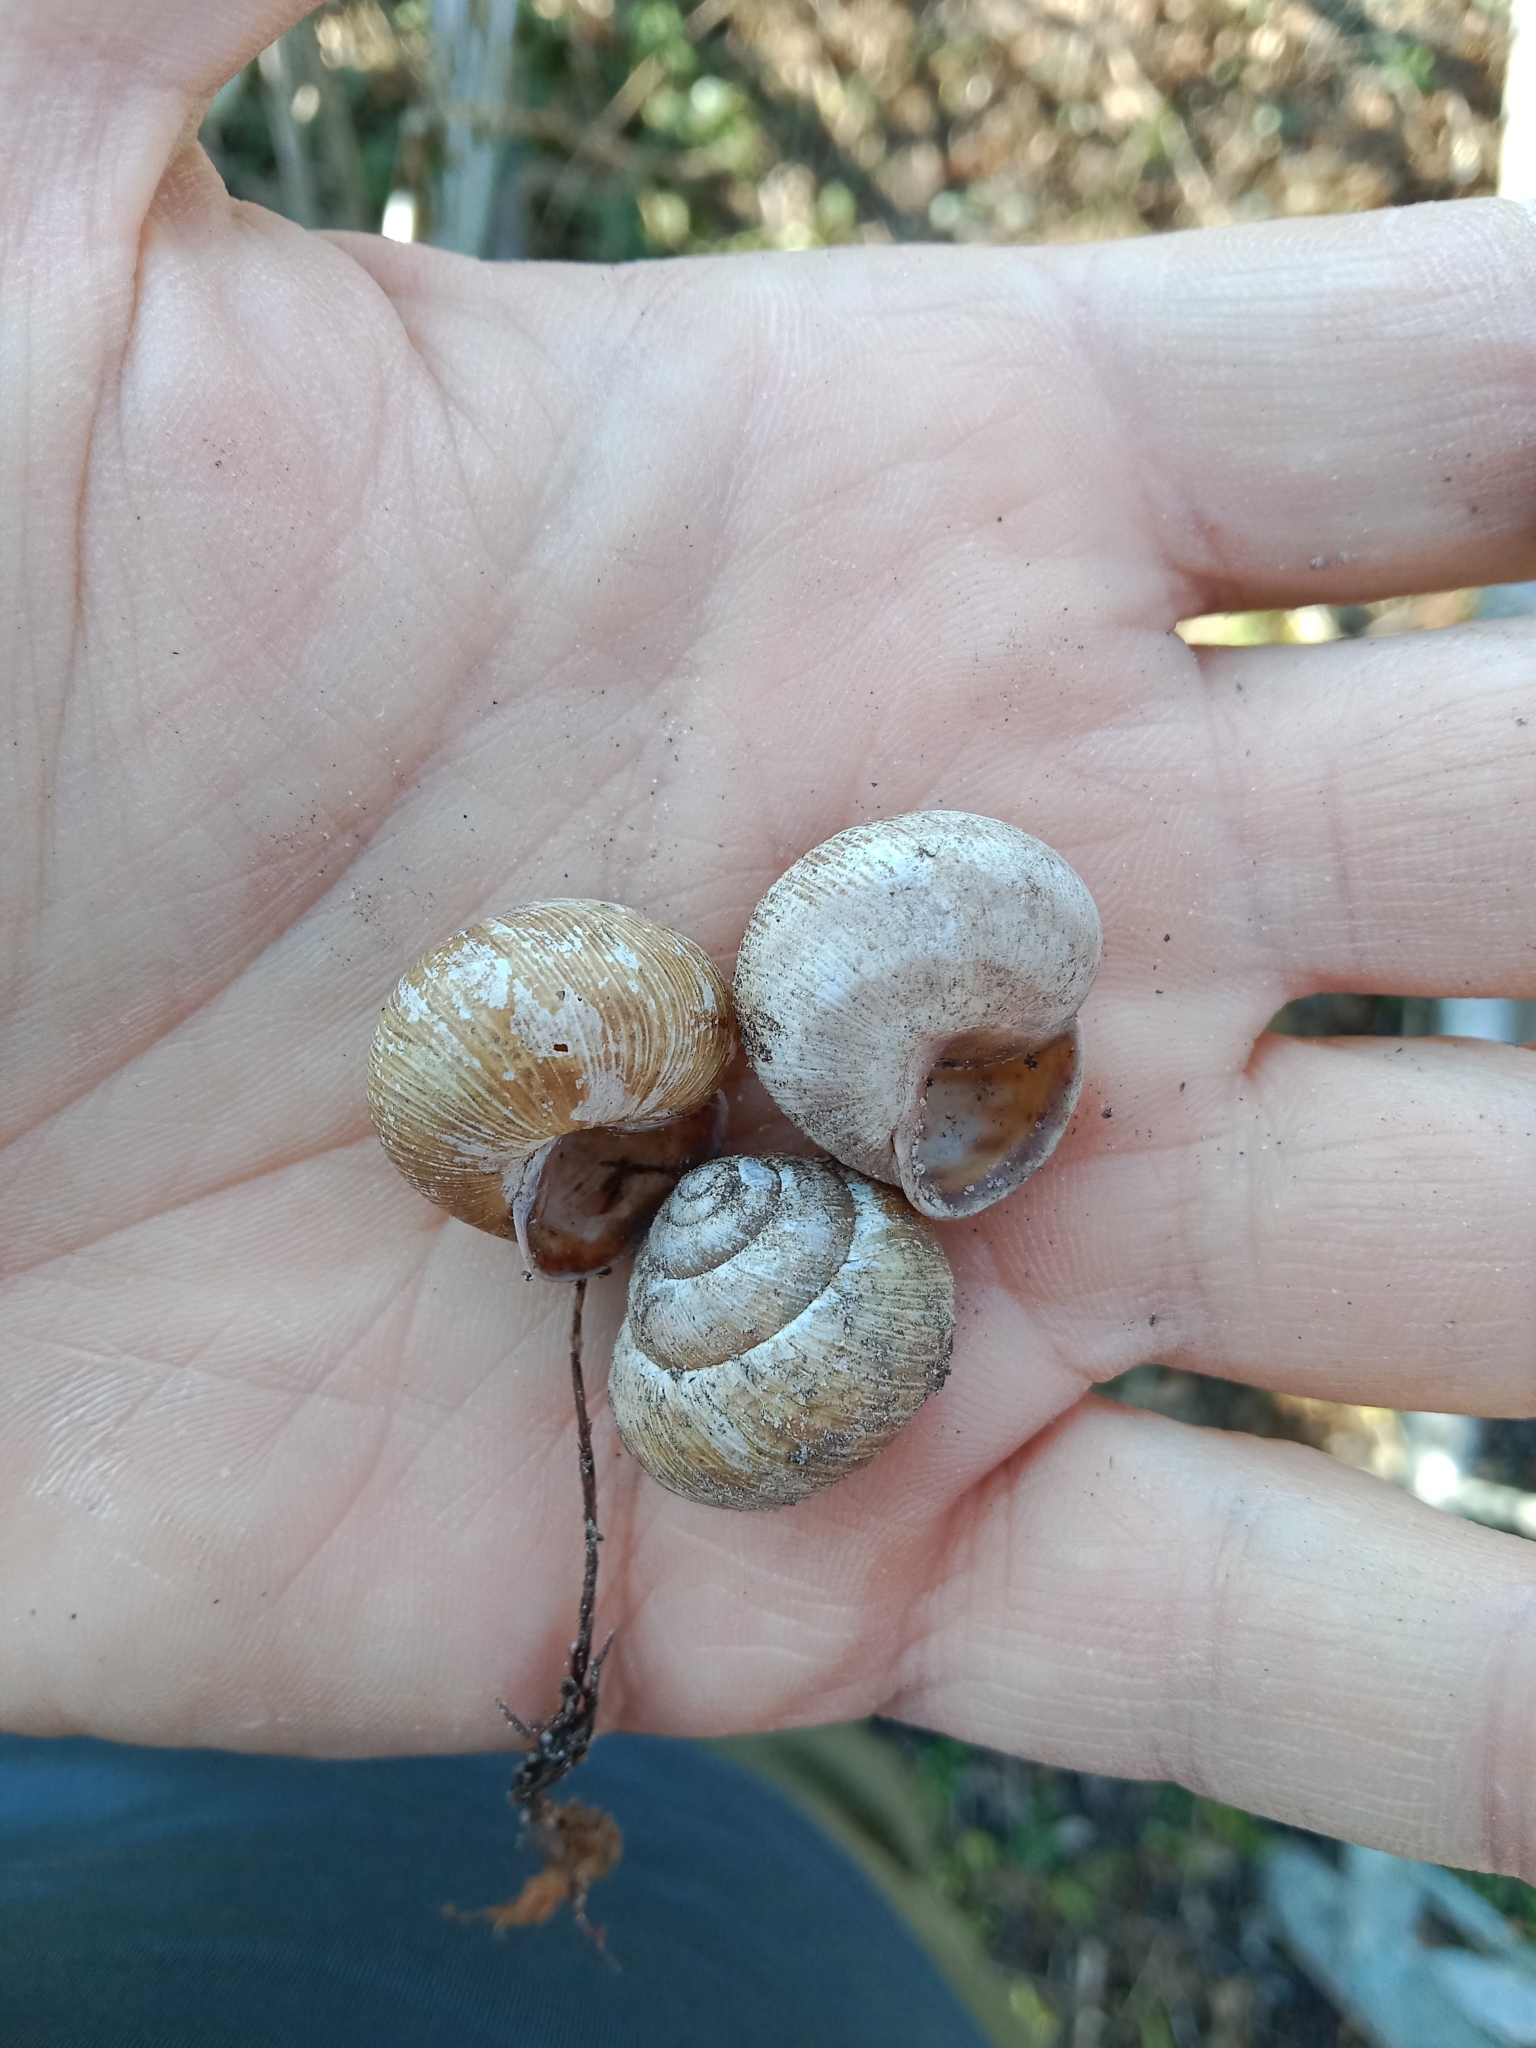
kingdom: Animalia
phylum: Mollusca
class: Gastropoda
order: Stylommatophora
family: Helicidae
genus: Caucasotachea
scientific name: Caucasotachea vindobonensis
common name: European helicid land snail
